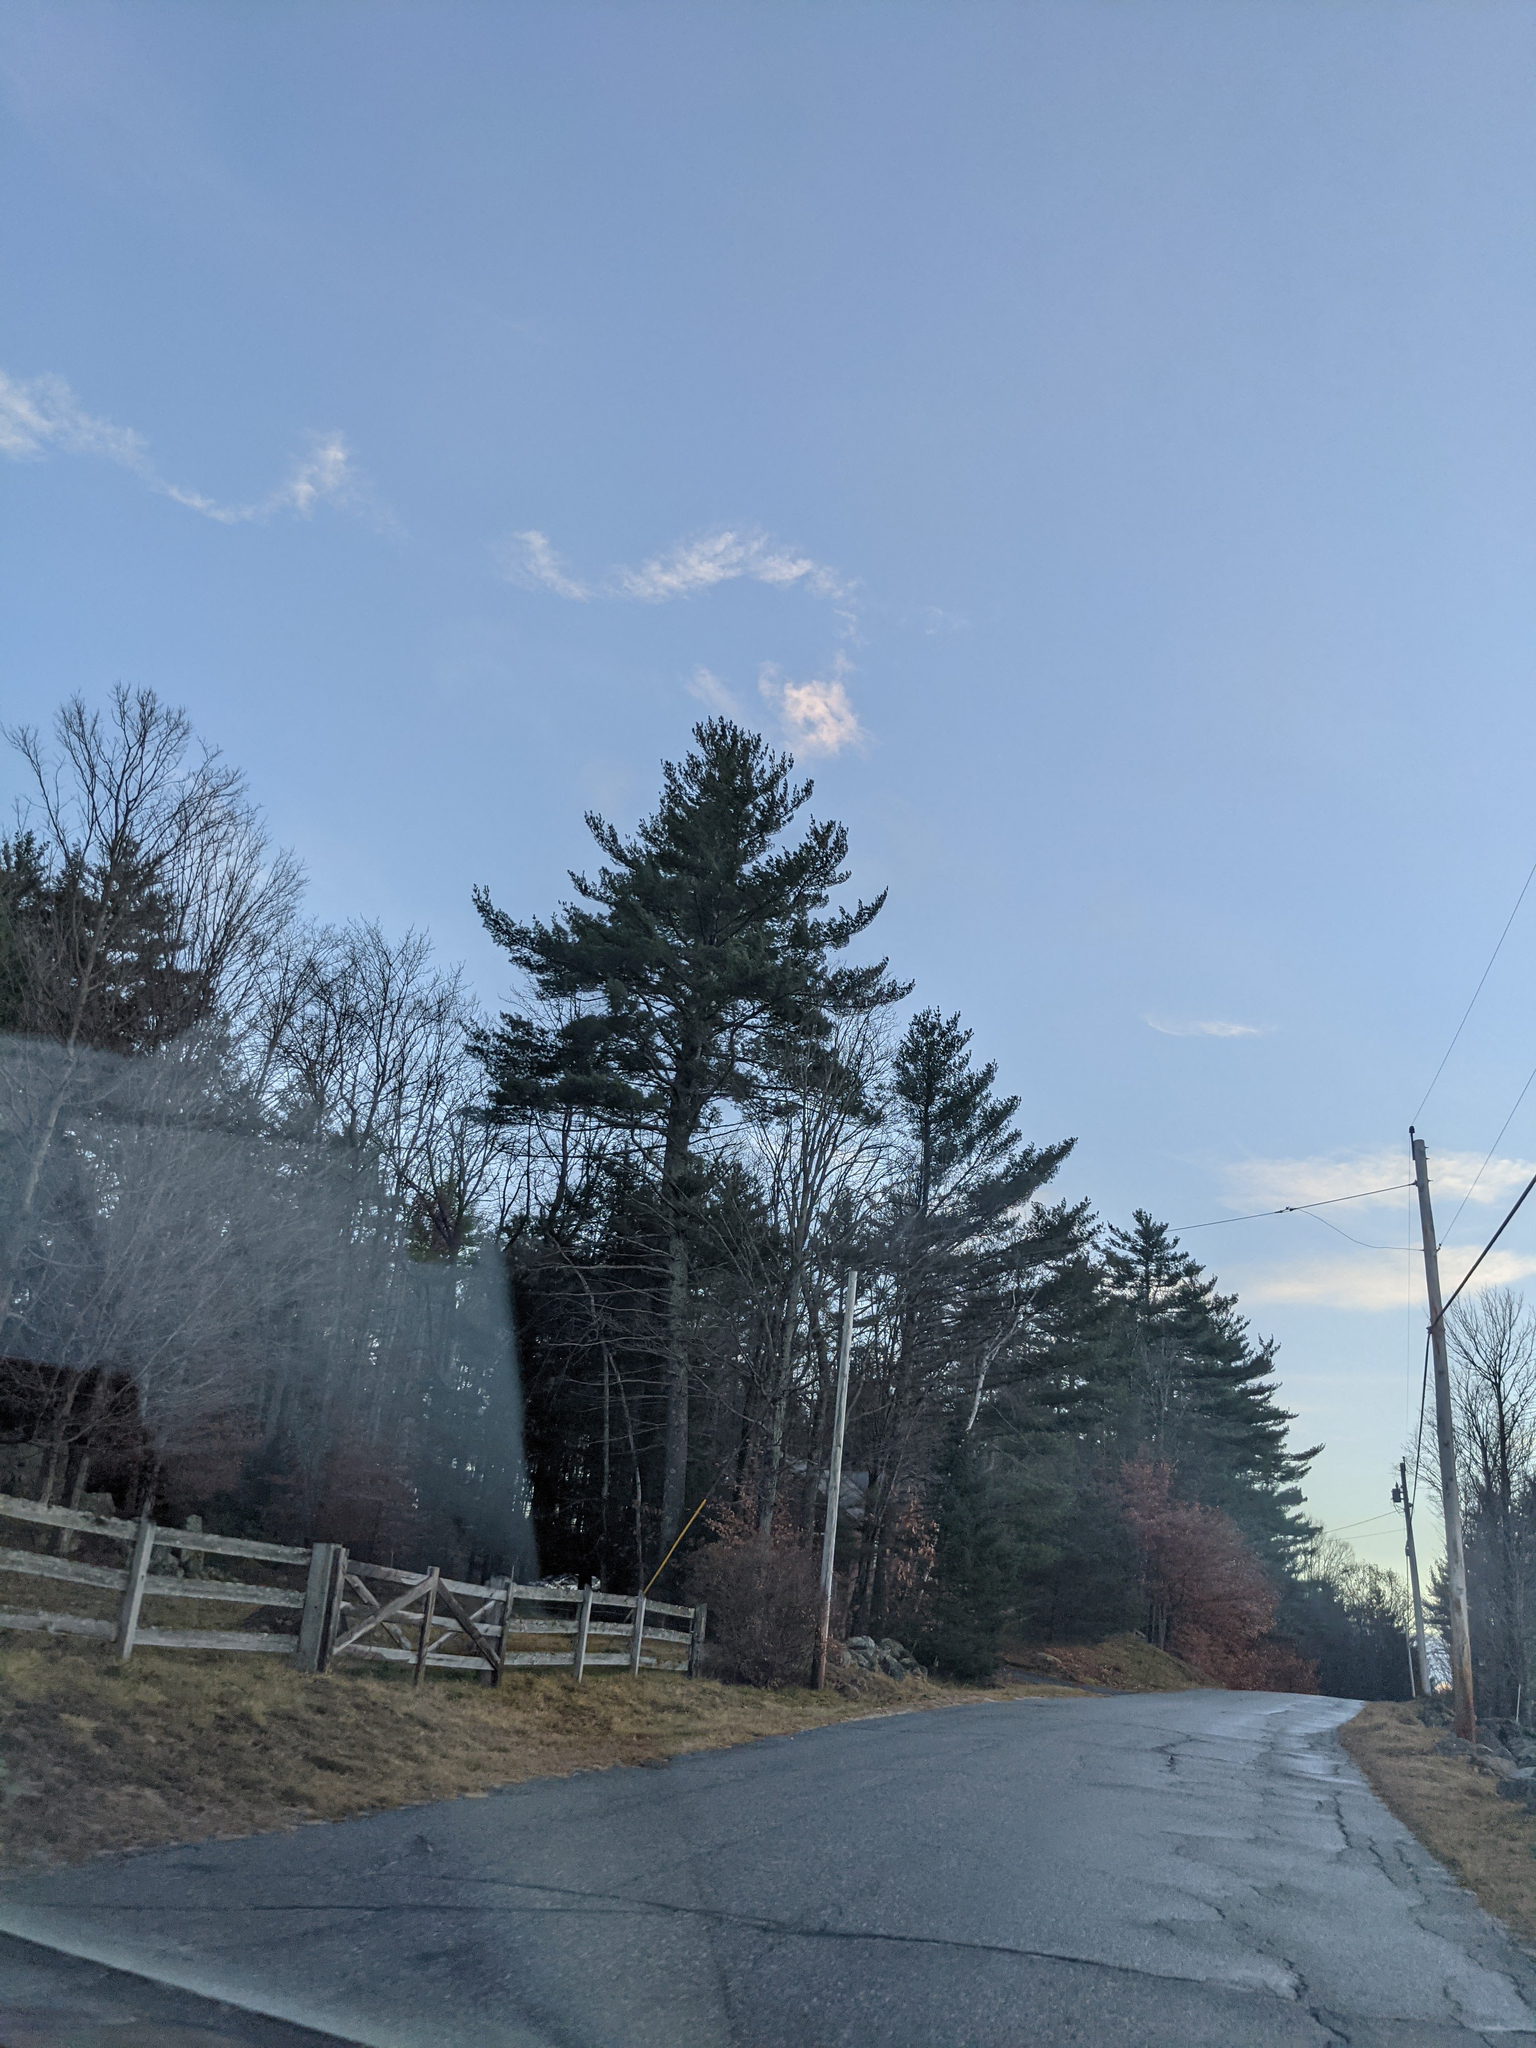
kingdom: Plantae
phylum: Tracheophyta
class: Pinopsida
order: Pinales
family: Pinaceae
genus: Pinus
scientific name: Pinus strobus
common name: Weymouth pine
